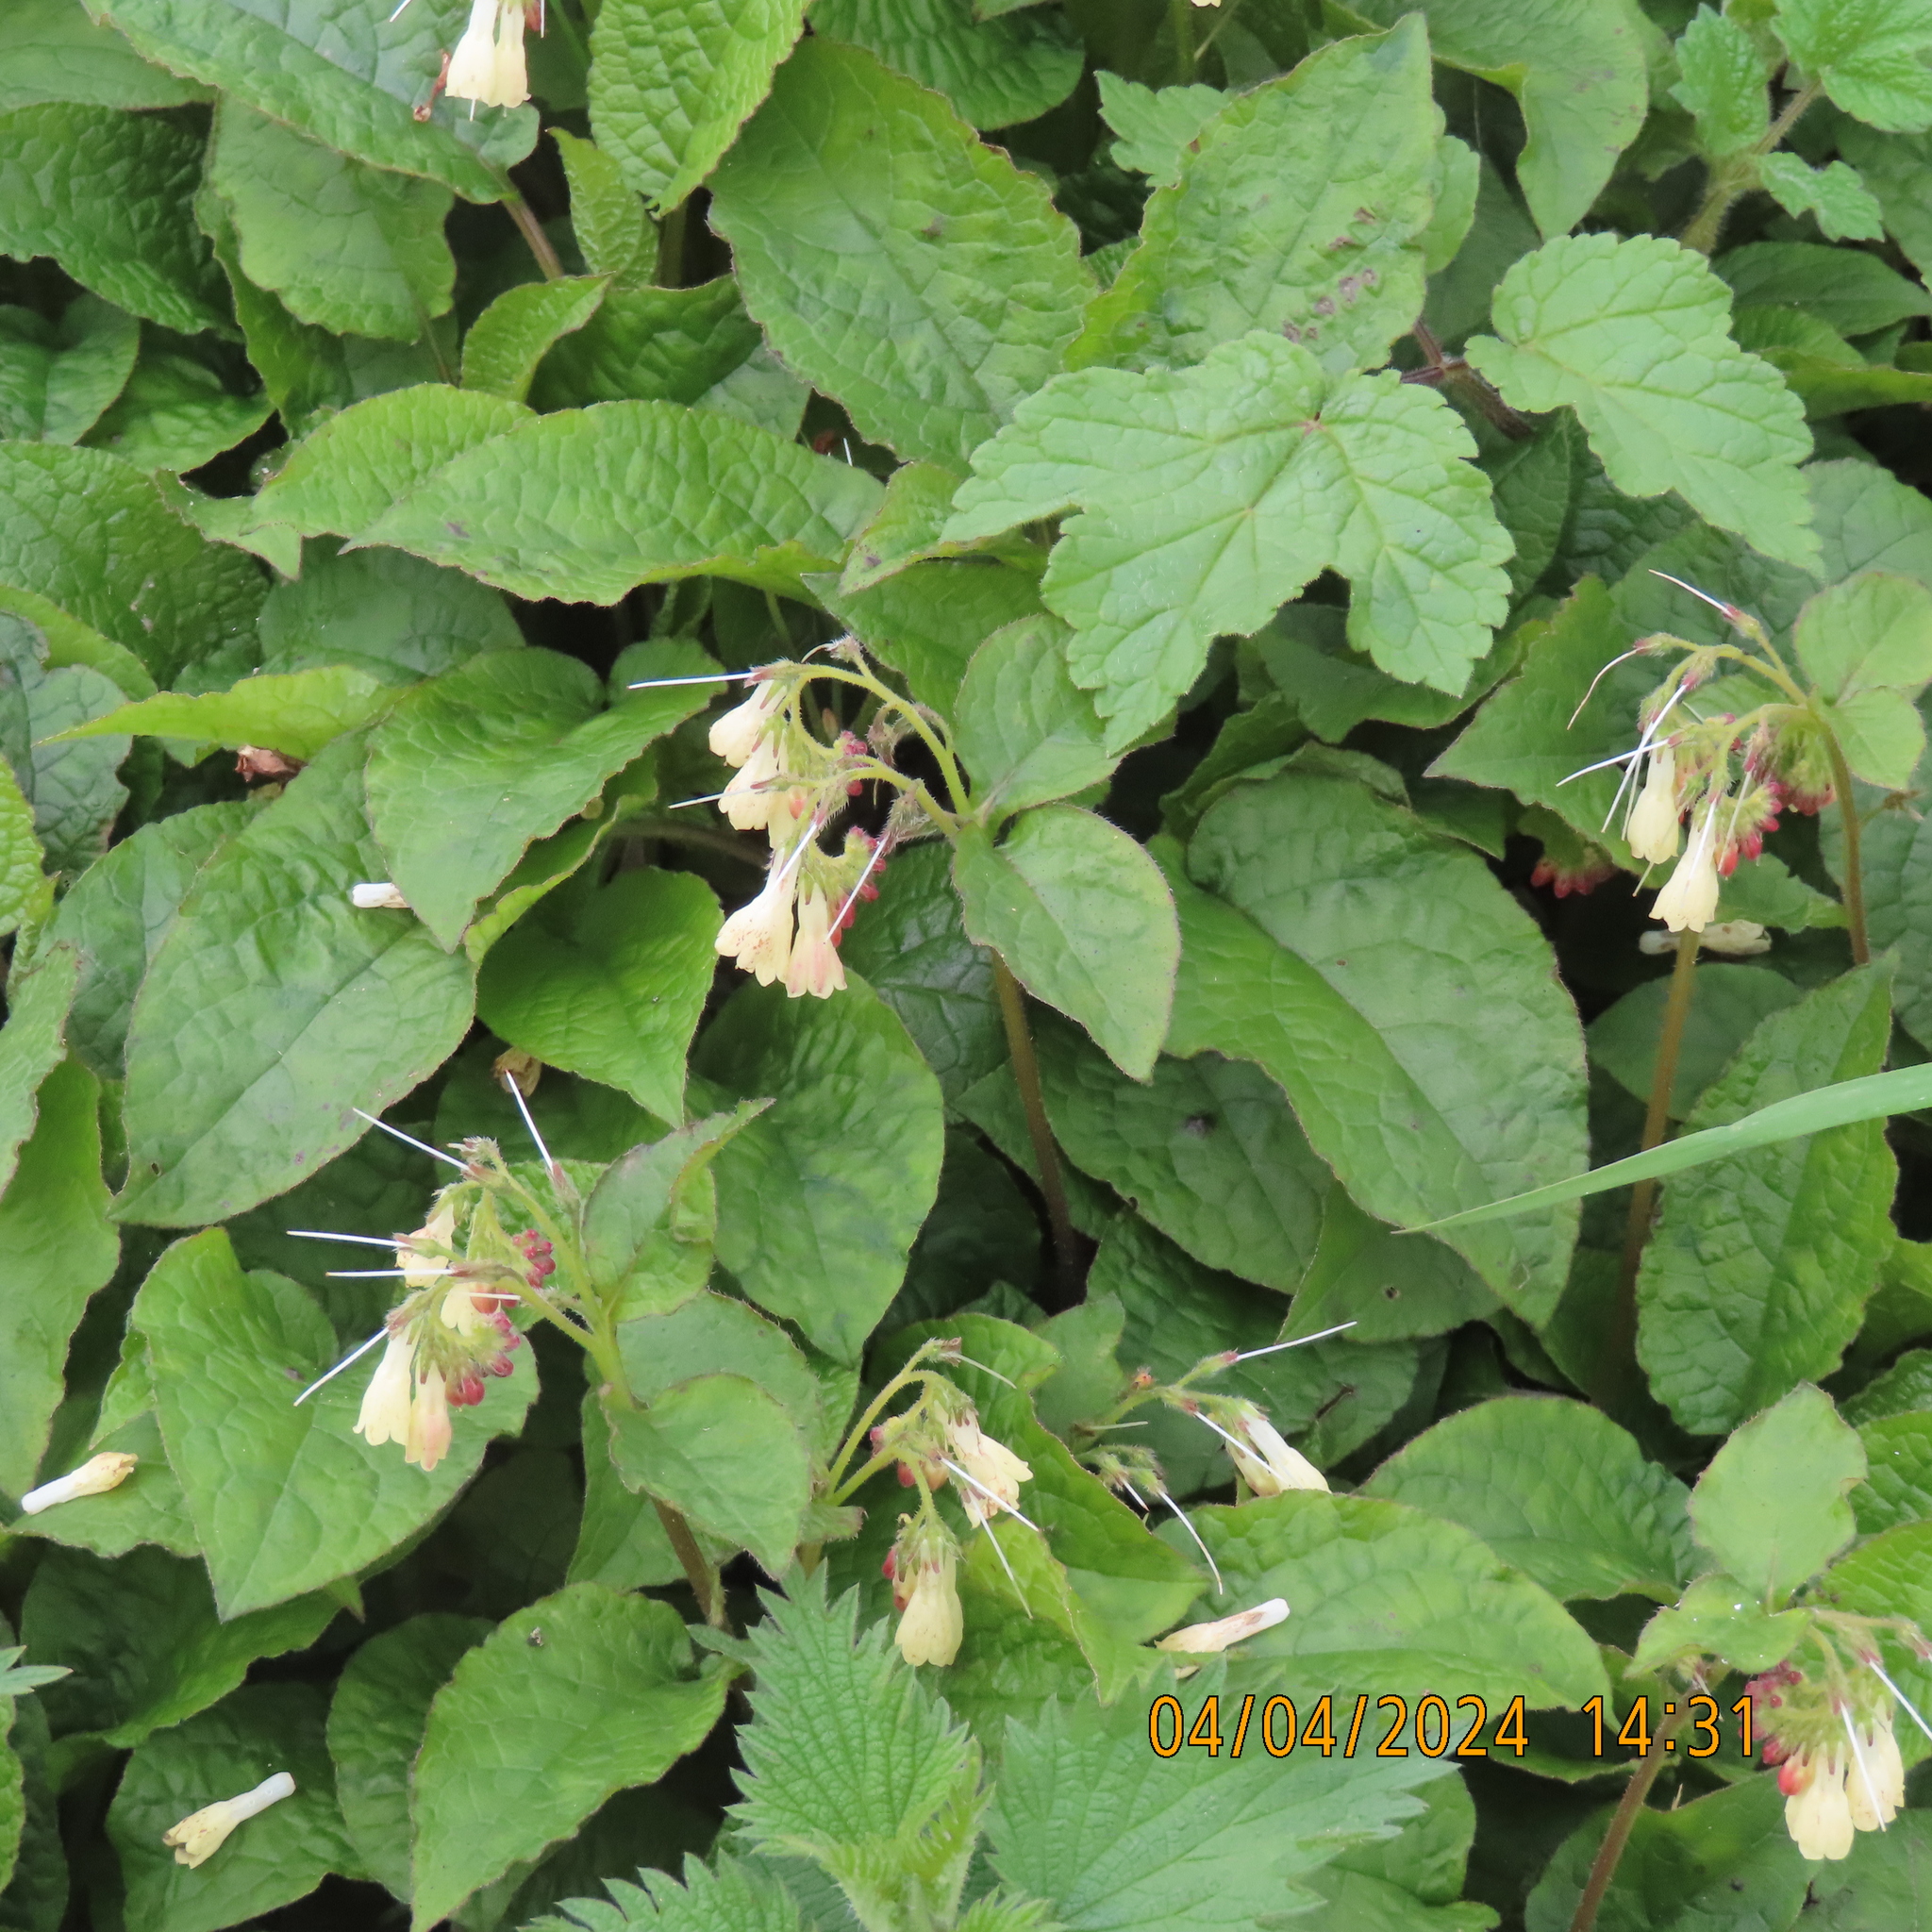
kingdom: Plantae
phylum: Tracheophyta
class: Magnoliopsida
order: Boraginales
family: Boraginaceae
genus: Symphytum
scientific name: Symphytum grandiflorum
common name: Creeping comfrey
